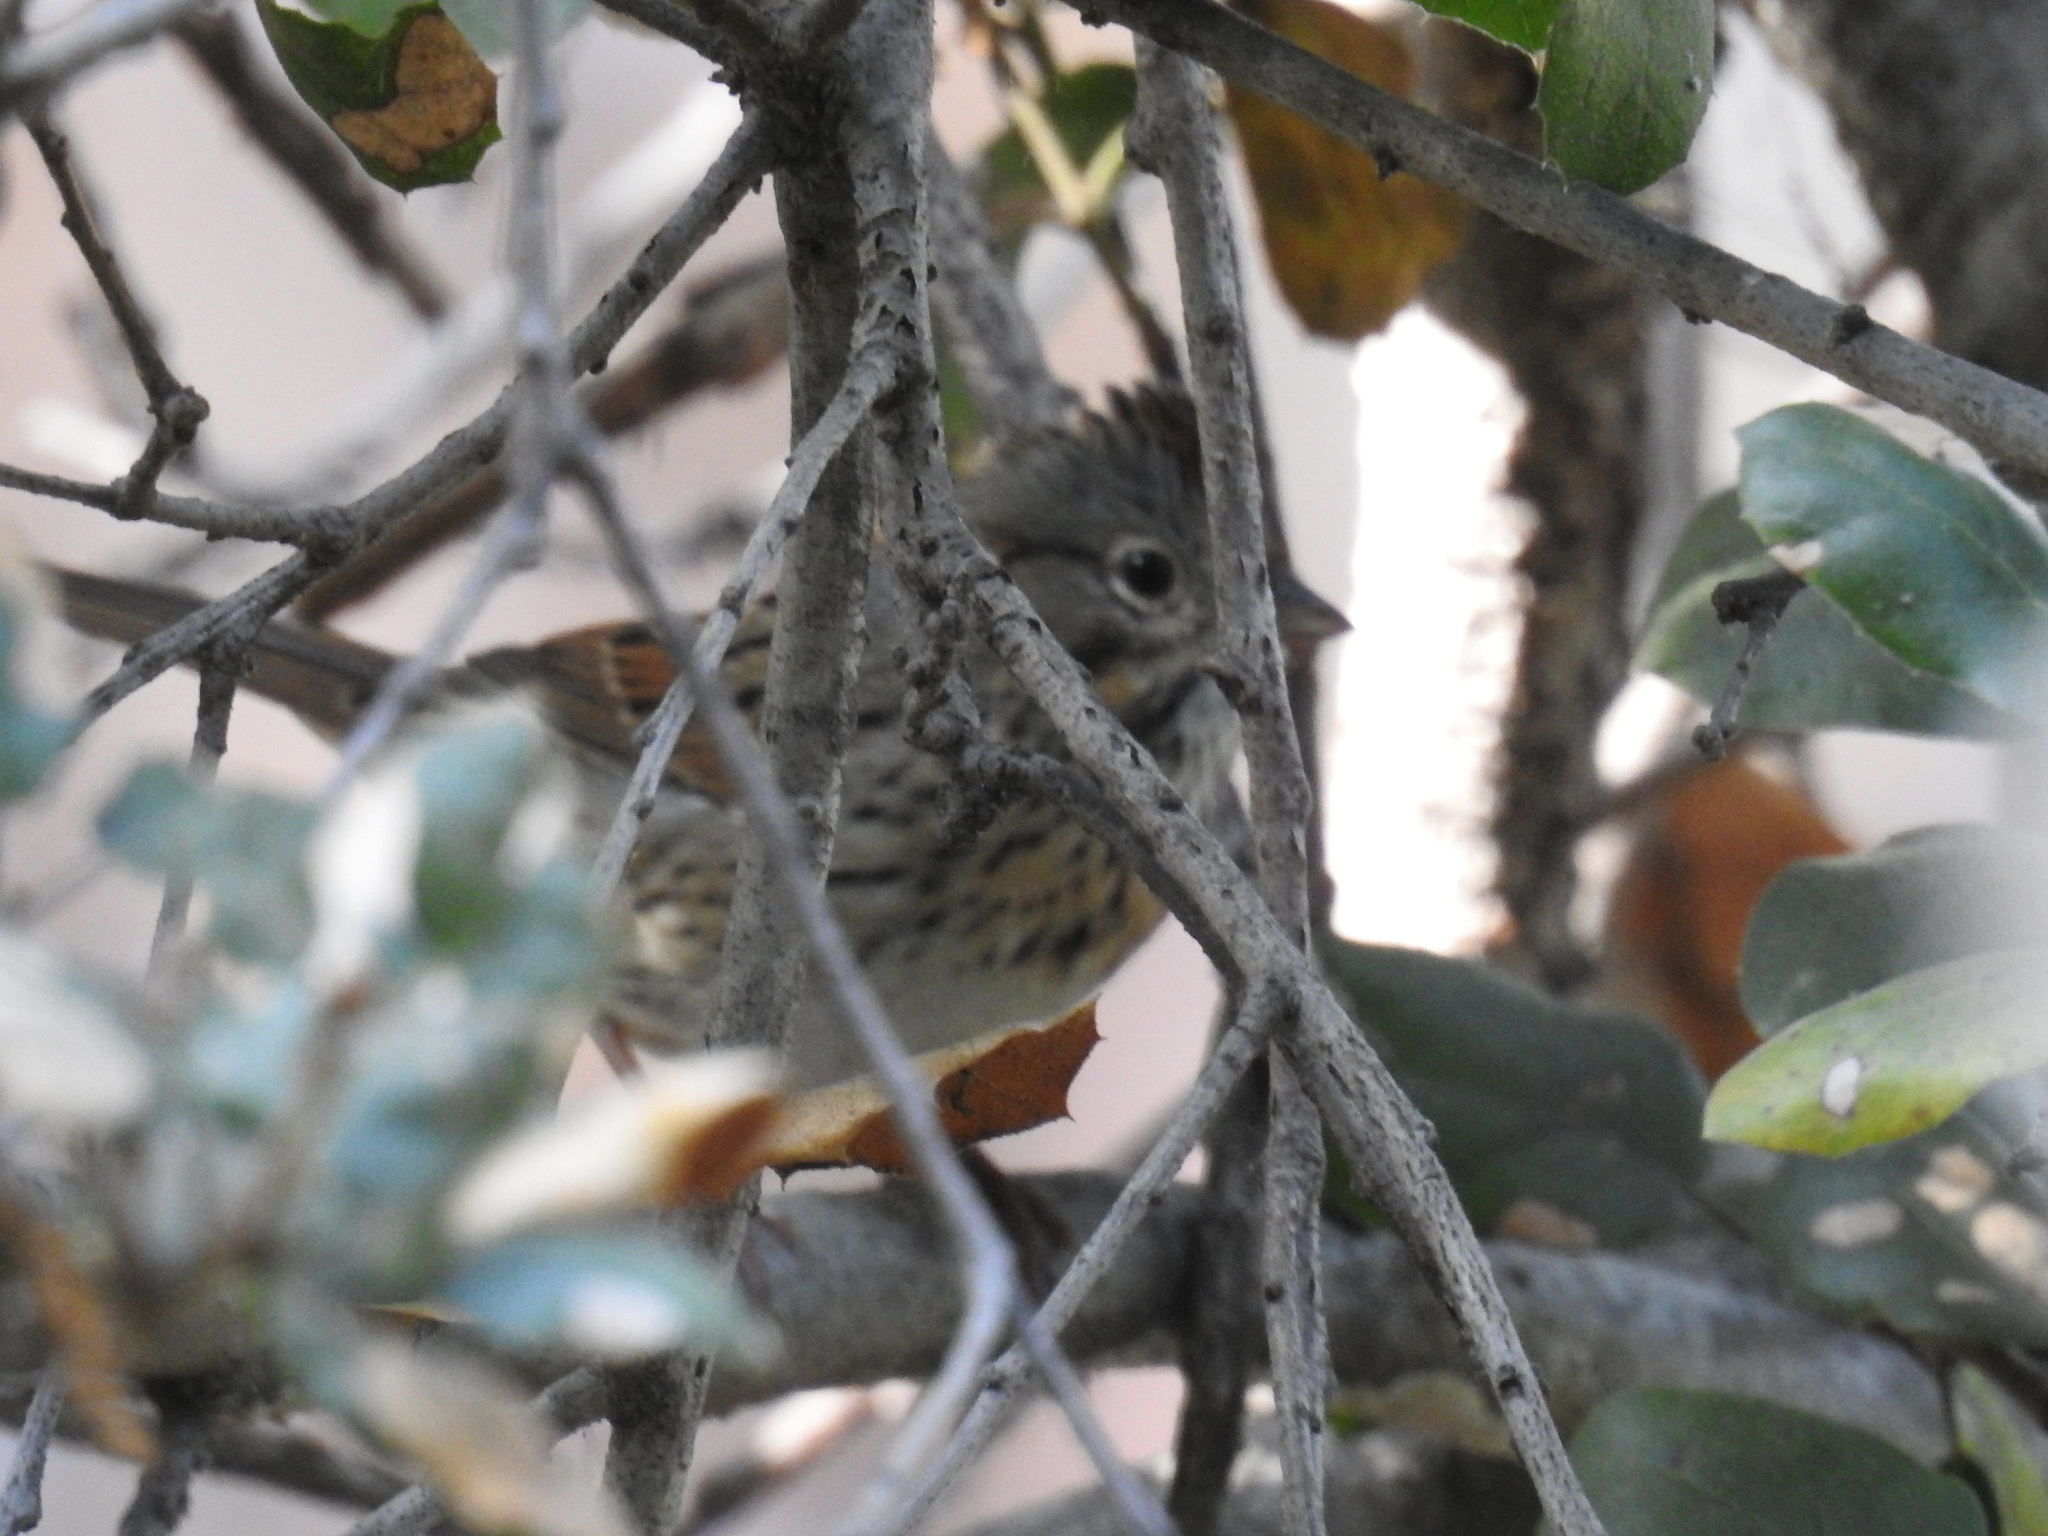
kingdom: Animalia
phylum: Chordata
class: Aves
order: Passeriformes
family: Passerellidae
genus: Melospiza
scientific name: Melospiza lincolnii
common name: Lincoln's sparrow
